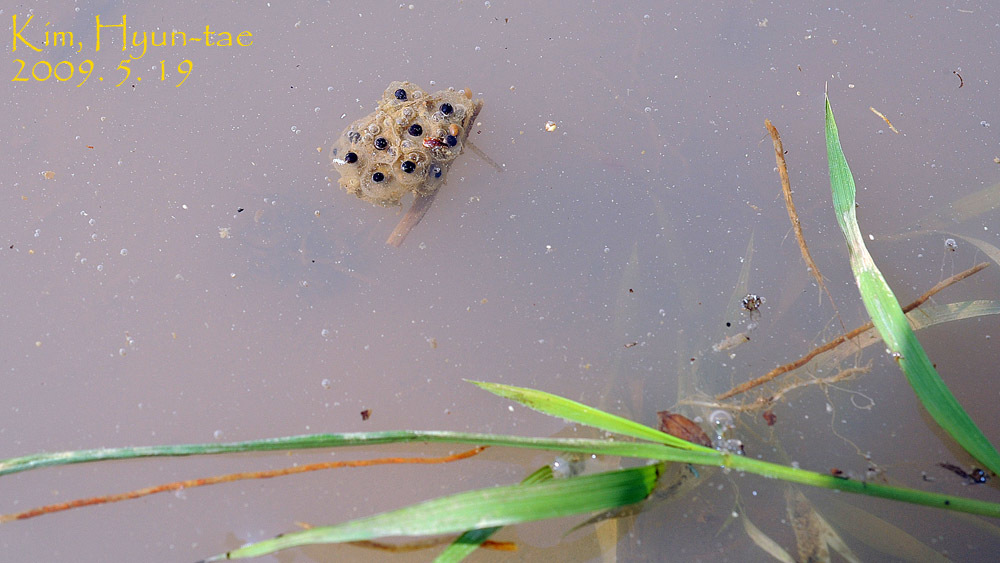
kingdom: Animalia
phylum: Chordata
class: Amphibia
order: Anura
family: Hylidae
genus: Dryophytes
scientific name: Dryophytes japonicus
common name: Japanese treefrog
